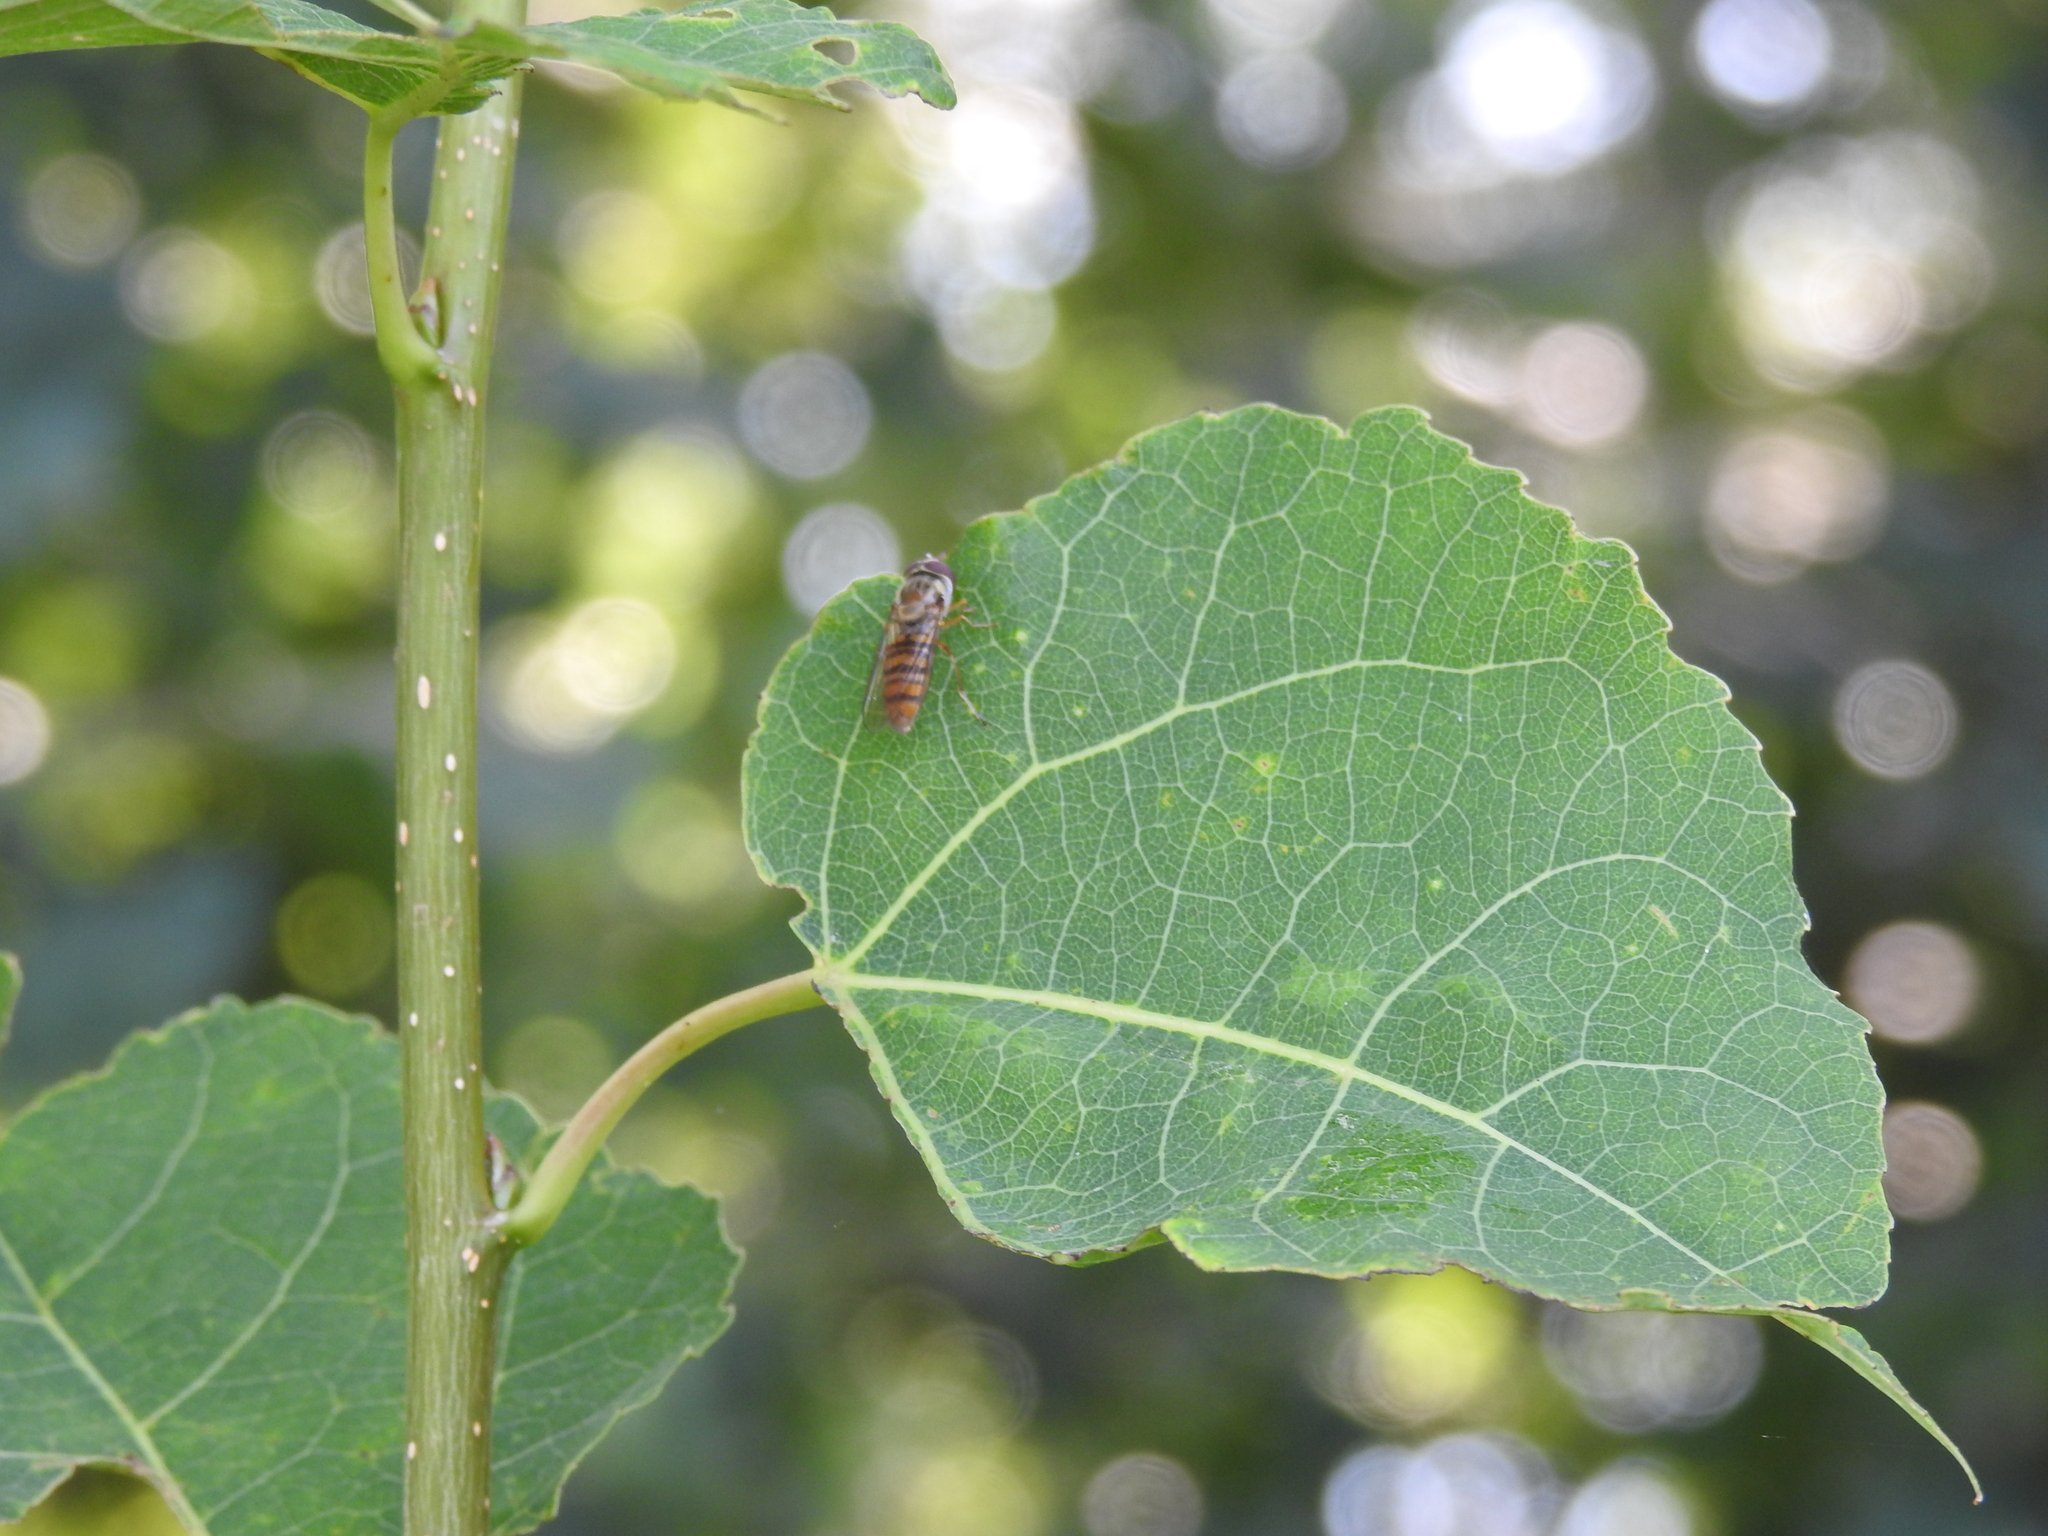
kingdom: Animalia
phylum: Arthropoda
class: Insecta
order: Diptera
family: Syrphidae
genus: Episyrphus
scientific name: Episyrphus balteatus
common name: Marmalade hoverfly
